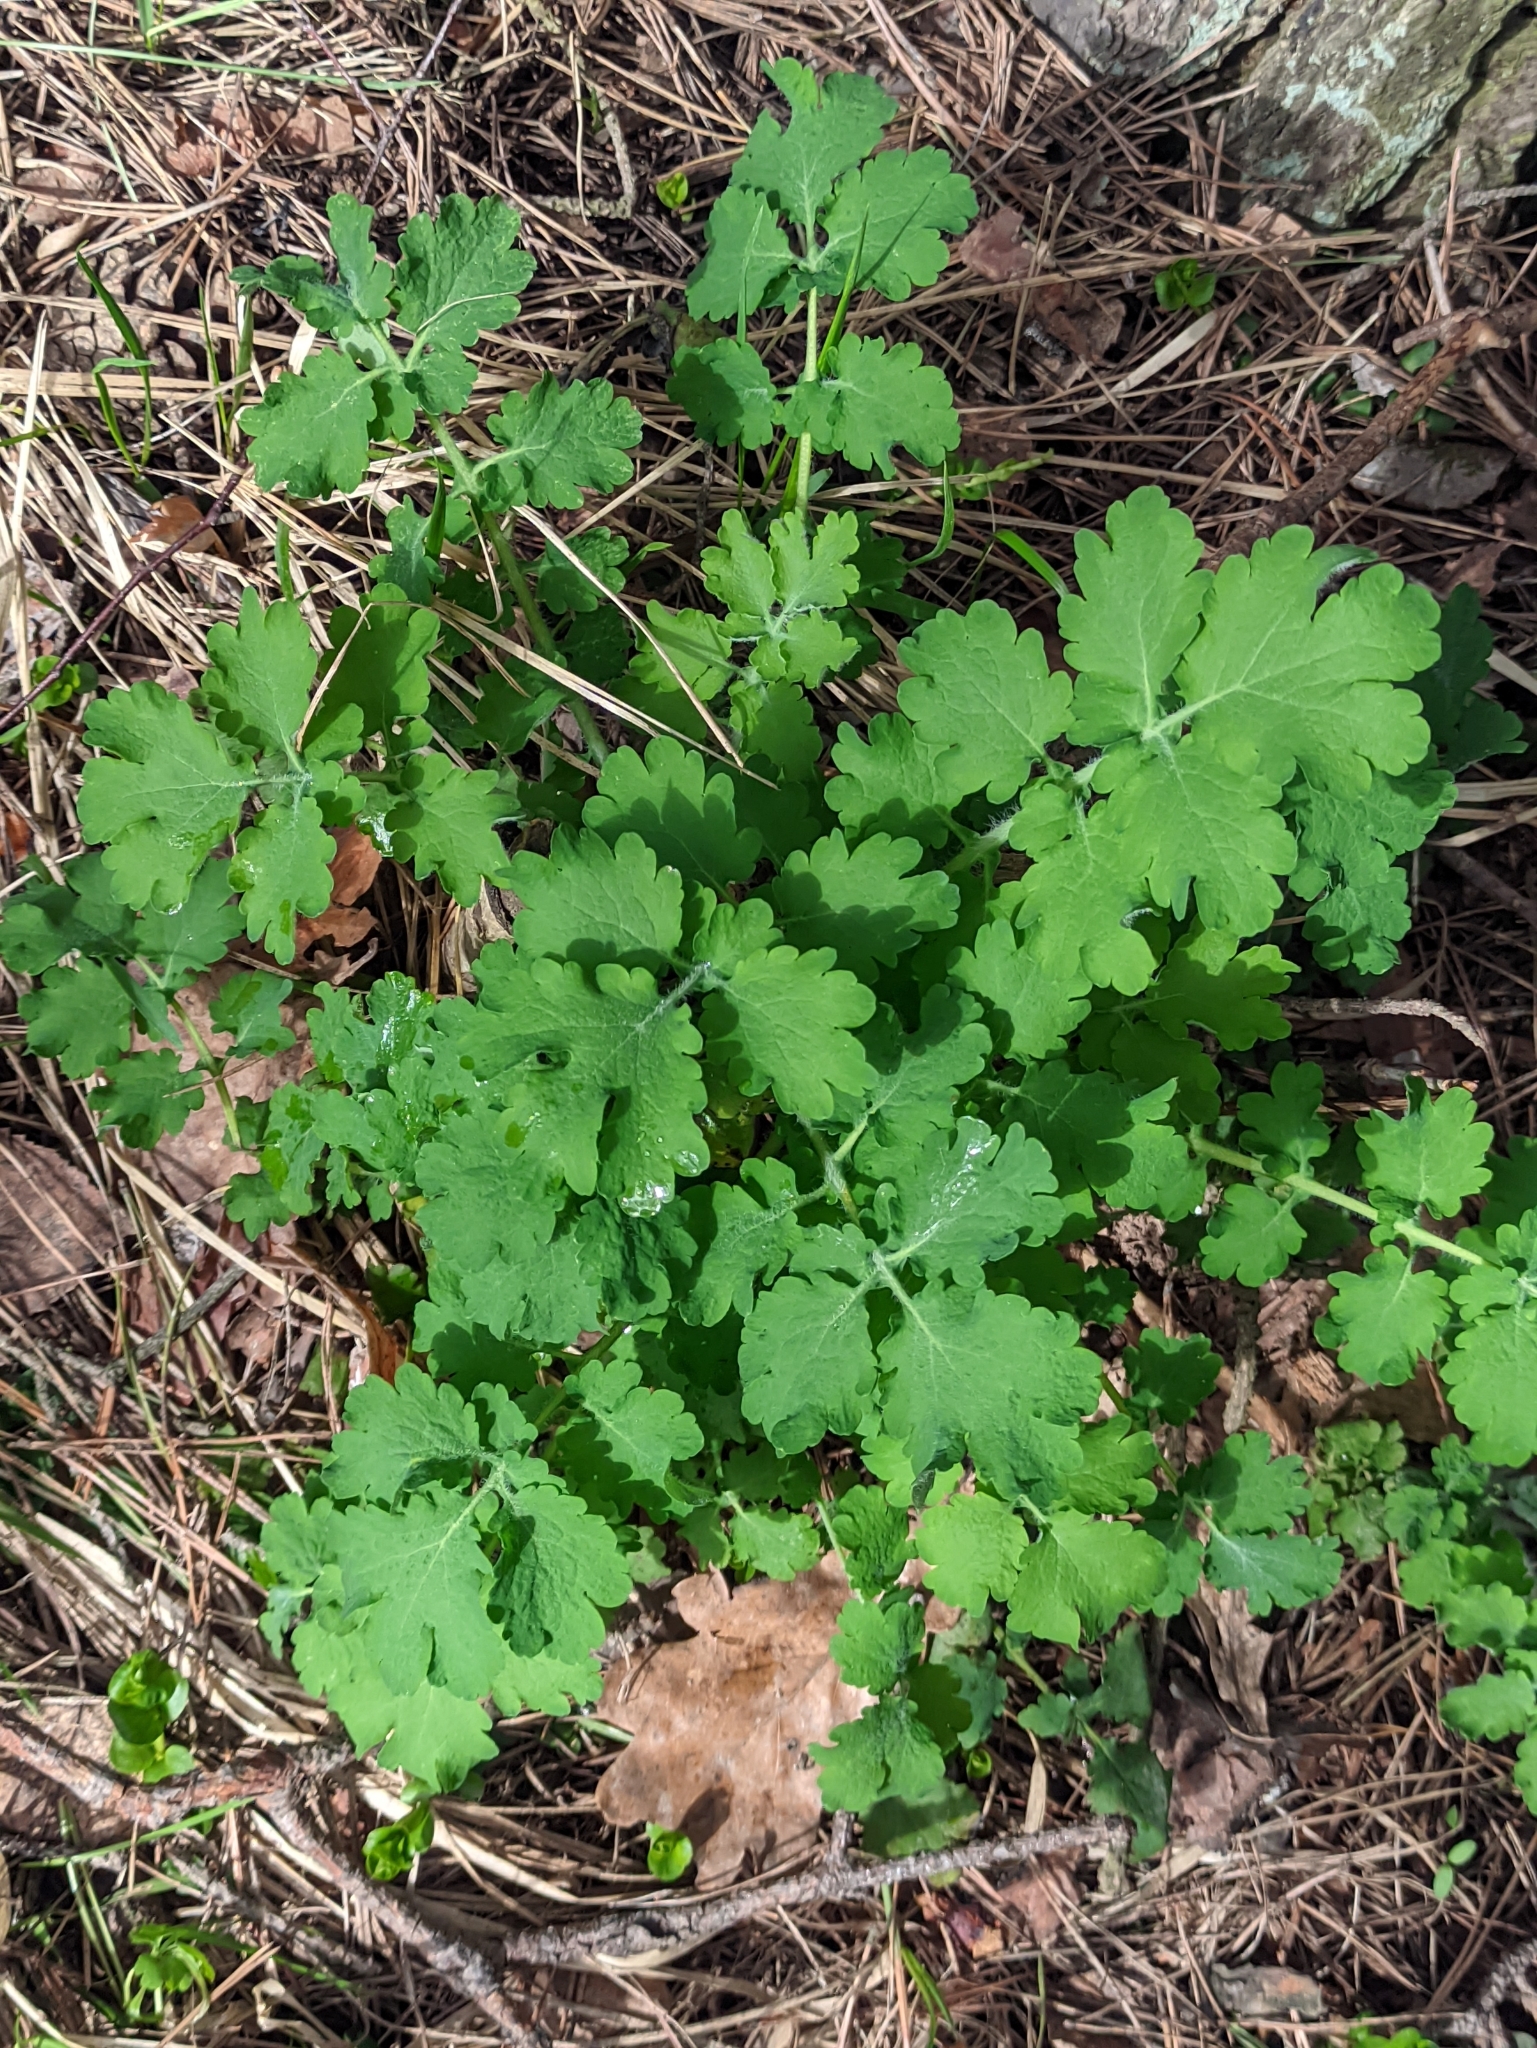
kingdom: Plantae
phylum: Tracheophyta
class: Magnoliopsida
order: Ranunculales
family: Papaveraceae
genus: Chelidonium
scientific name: Chelidonium majus
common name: Greater celandine
